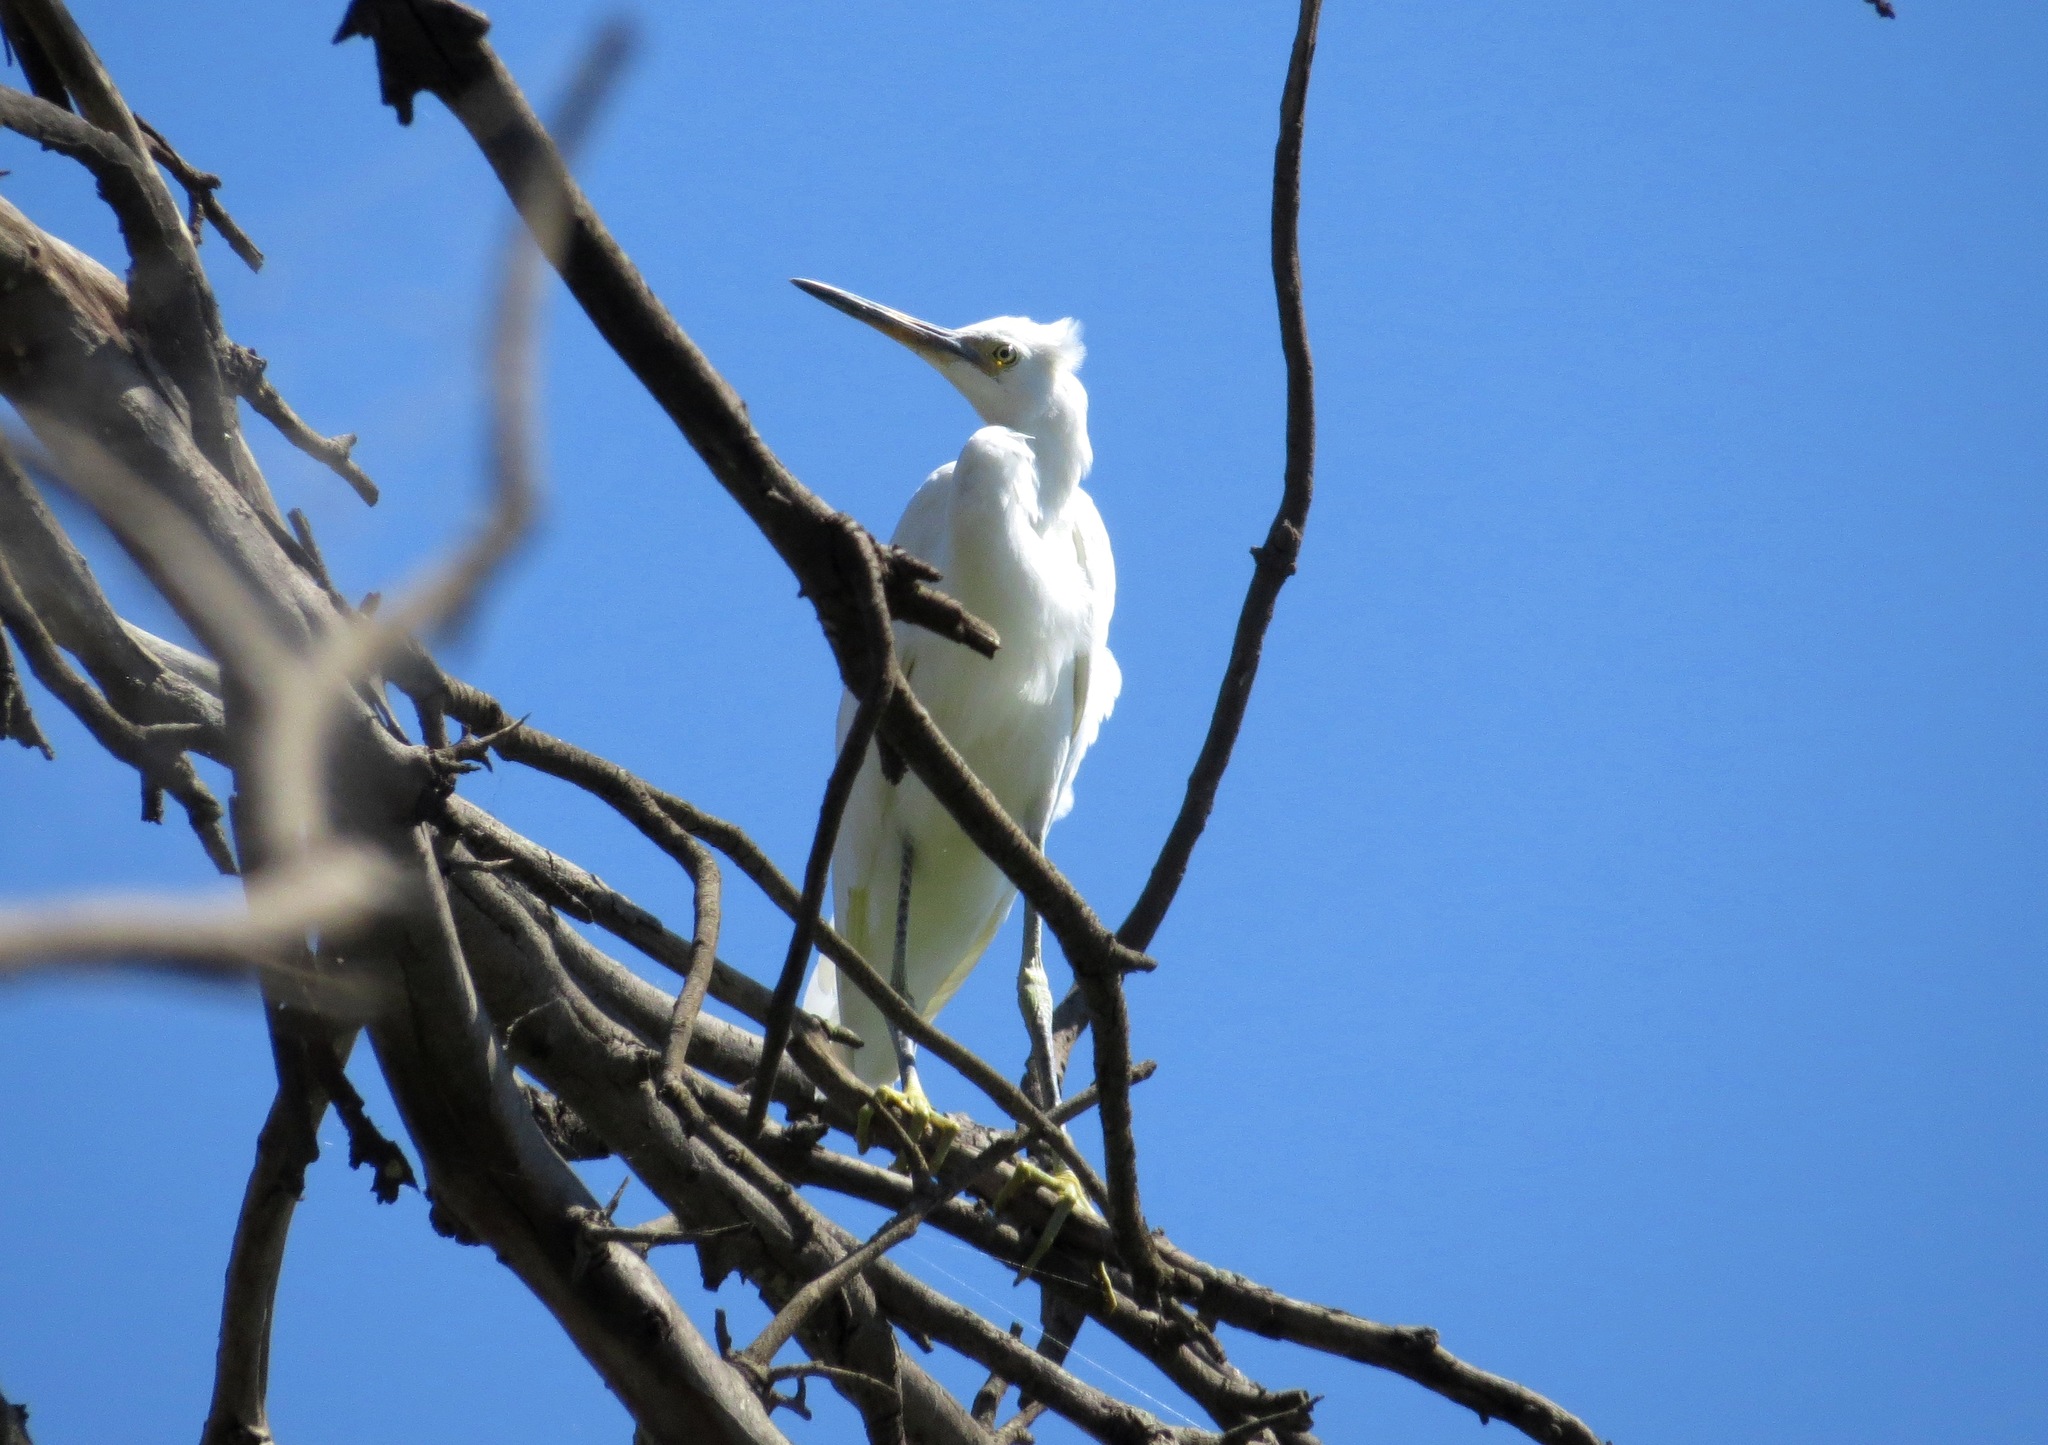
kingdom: Animalia
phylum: Chordata
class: Aves
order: Pelecaniformes
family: Ardeidae
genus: Egretta
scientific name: Egretta dimorpha
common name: Dimorphic egret
